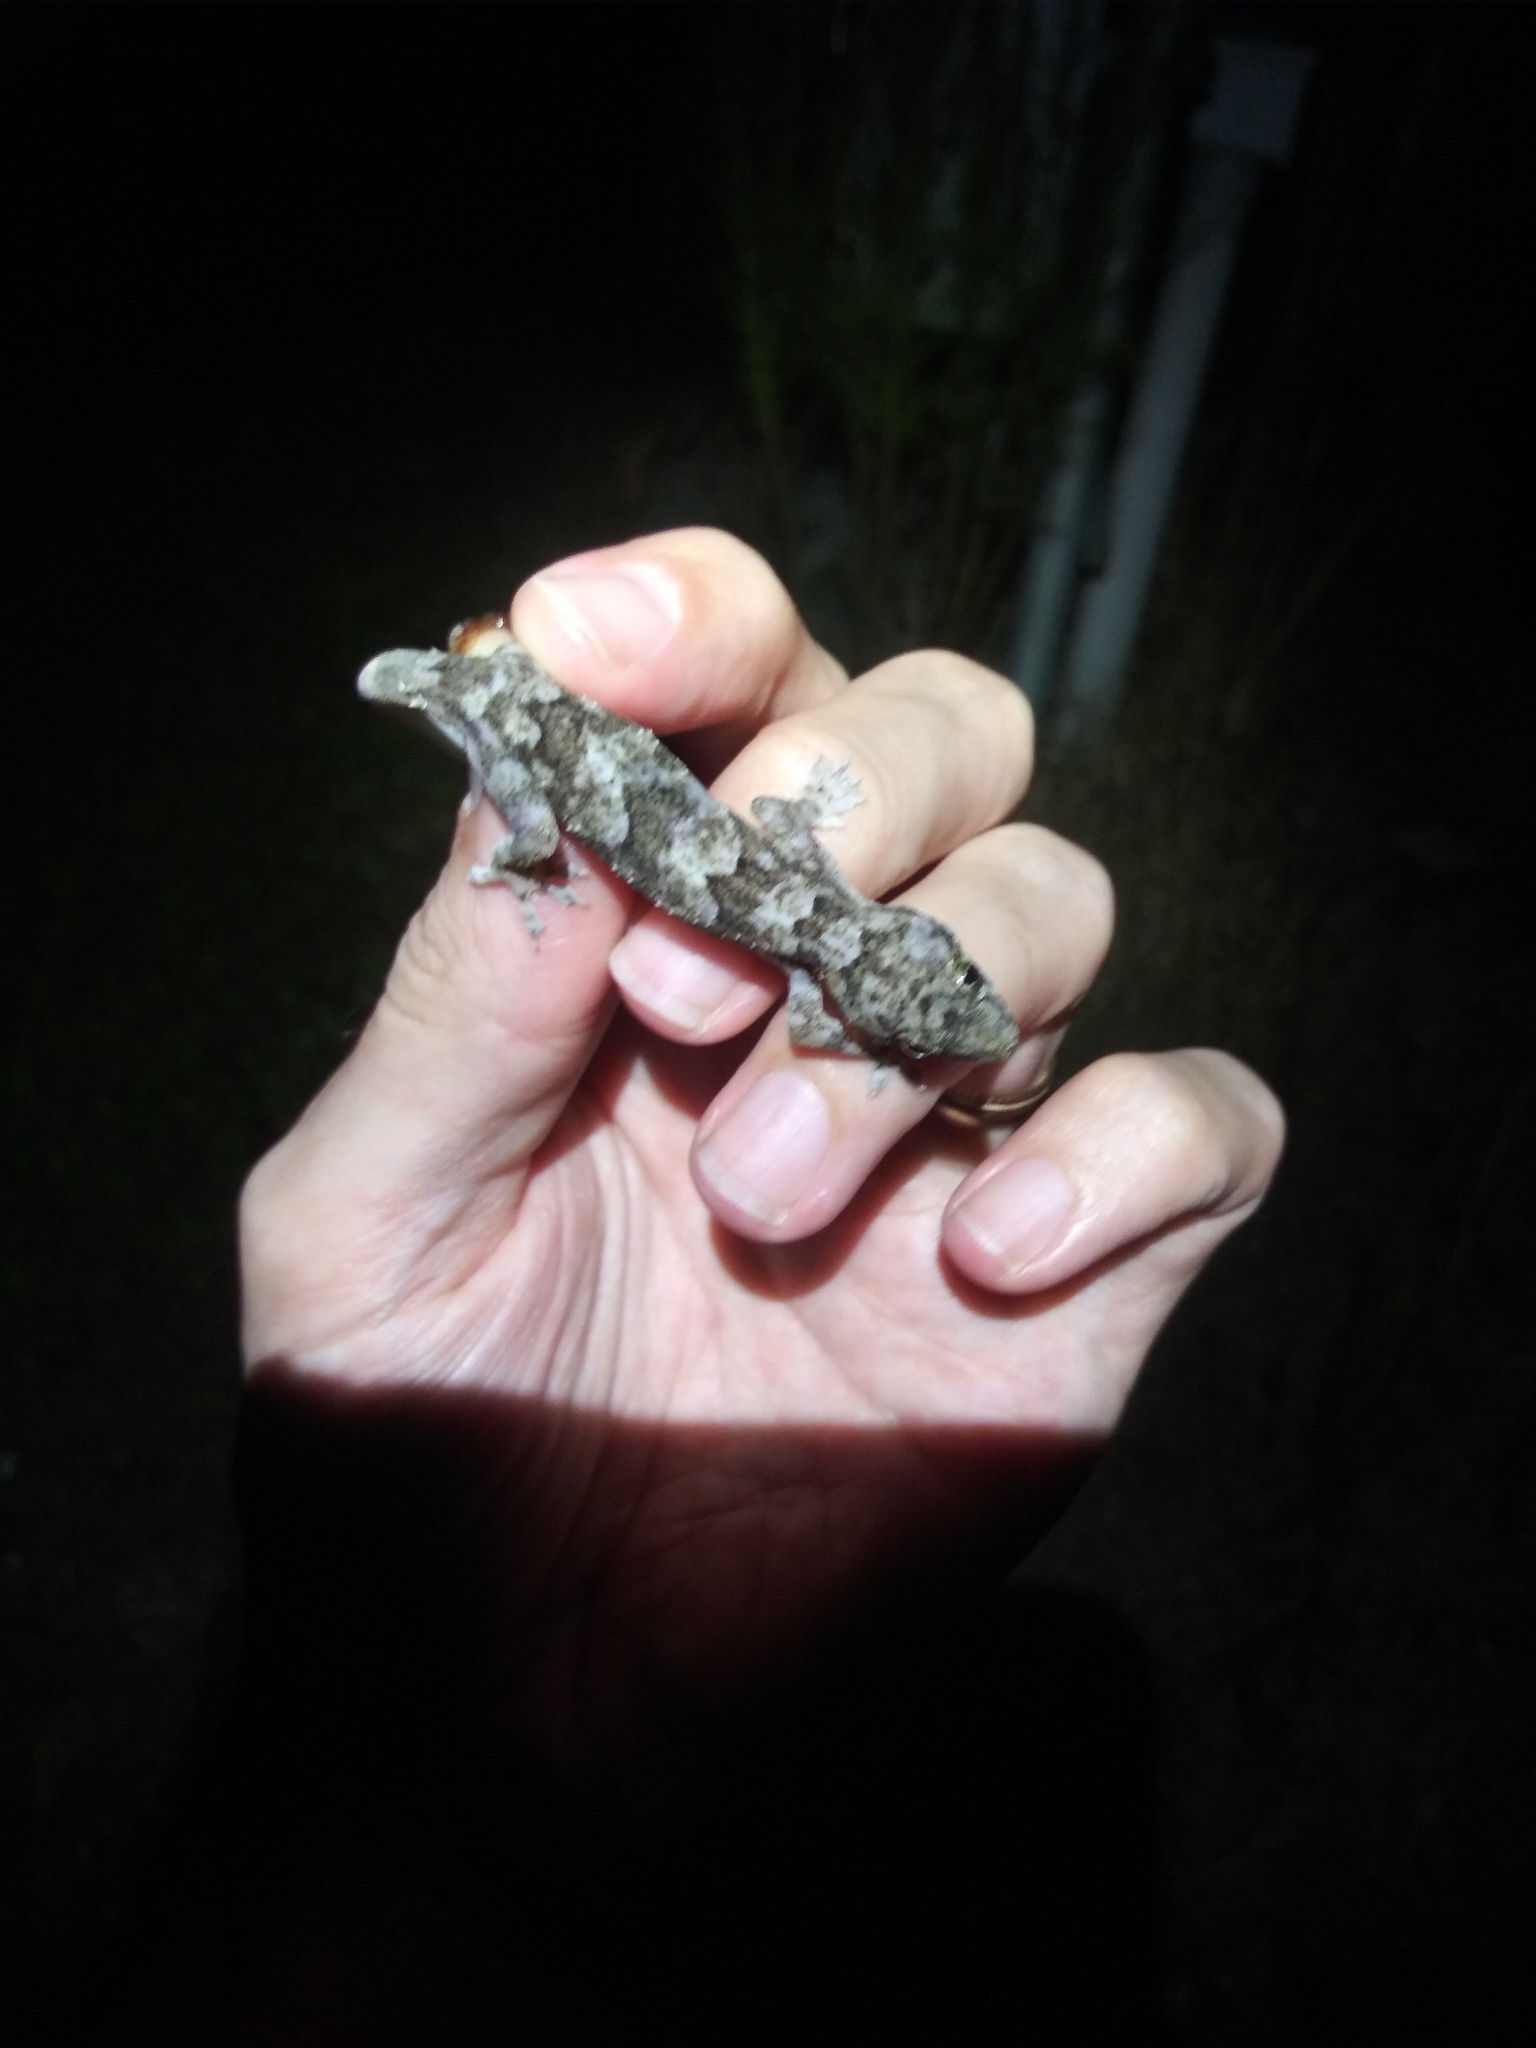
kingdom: Animalia
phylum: Chordata
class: Squamata
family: Gekkonidae
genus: Hemidactylus
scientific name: Hemidactylus mabouia
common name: House gecko
